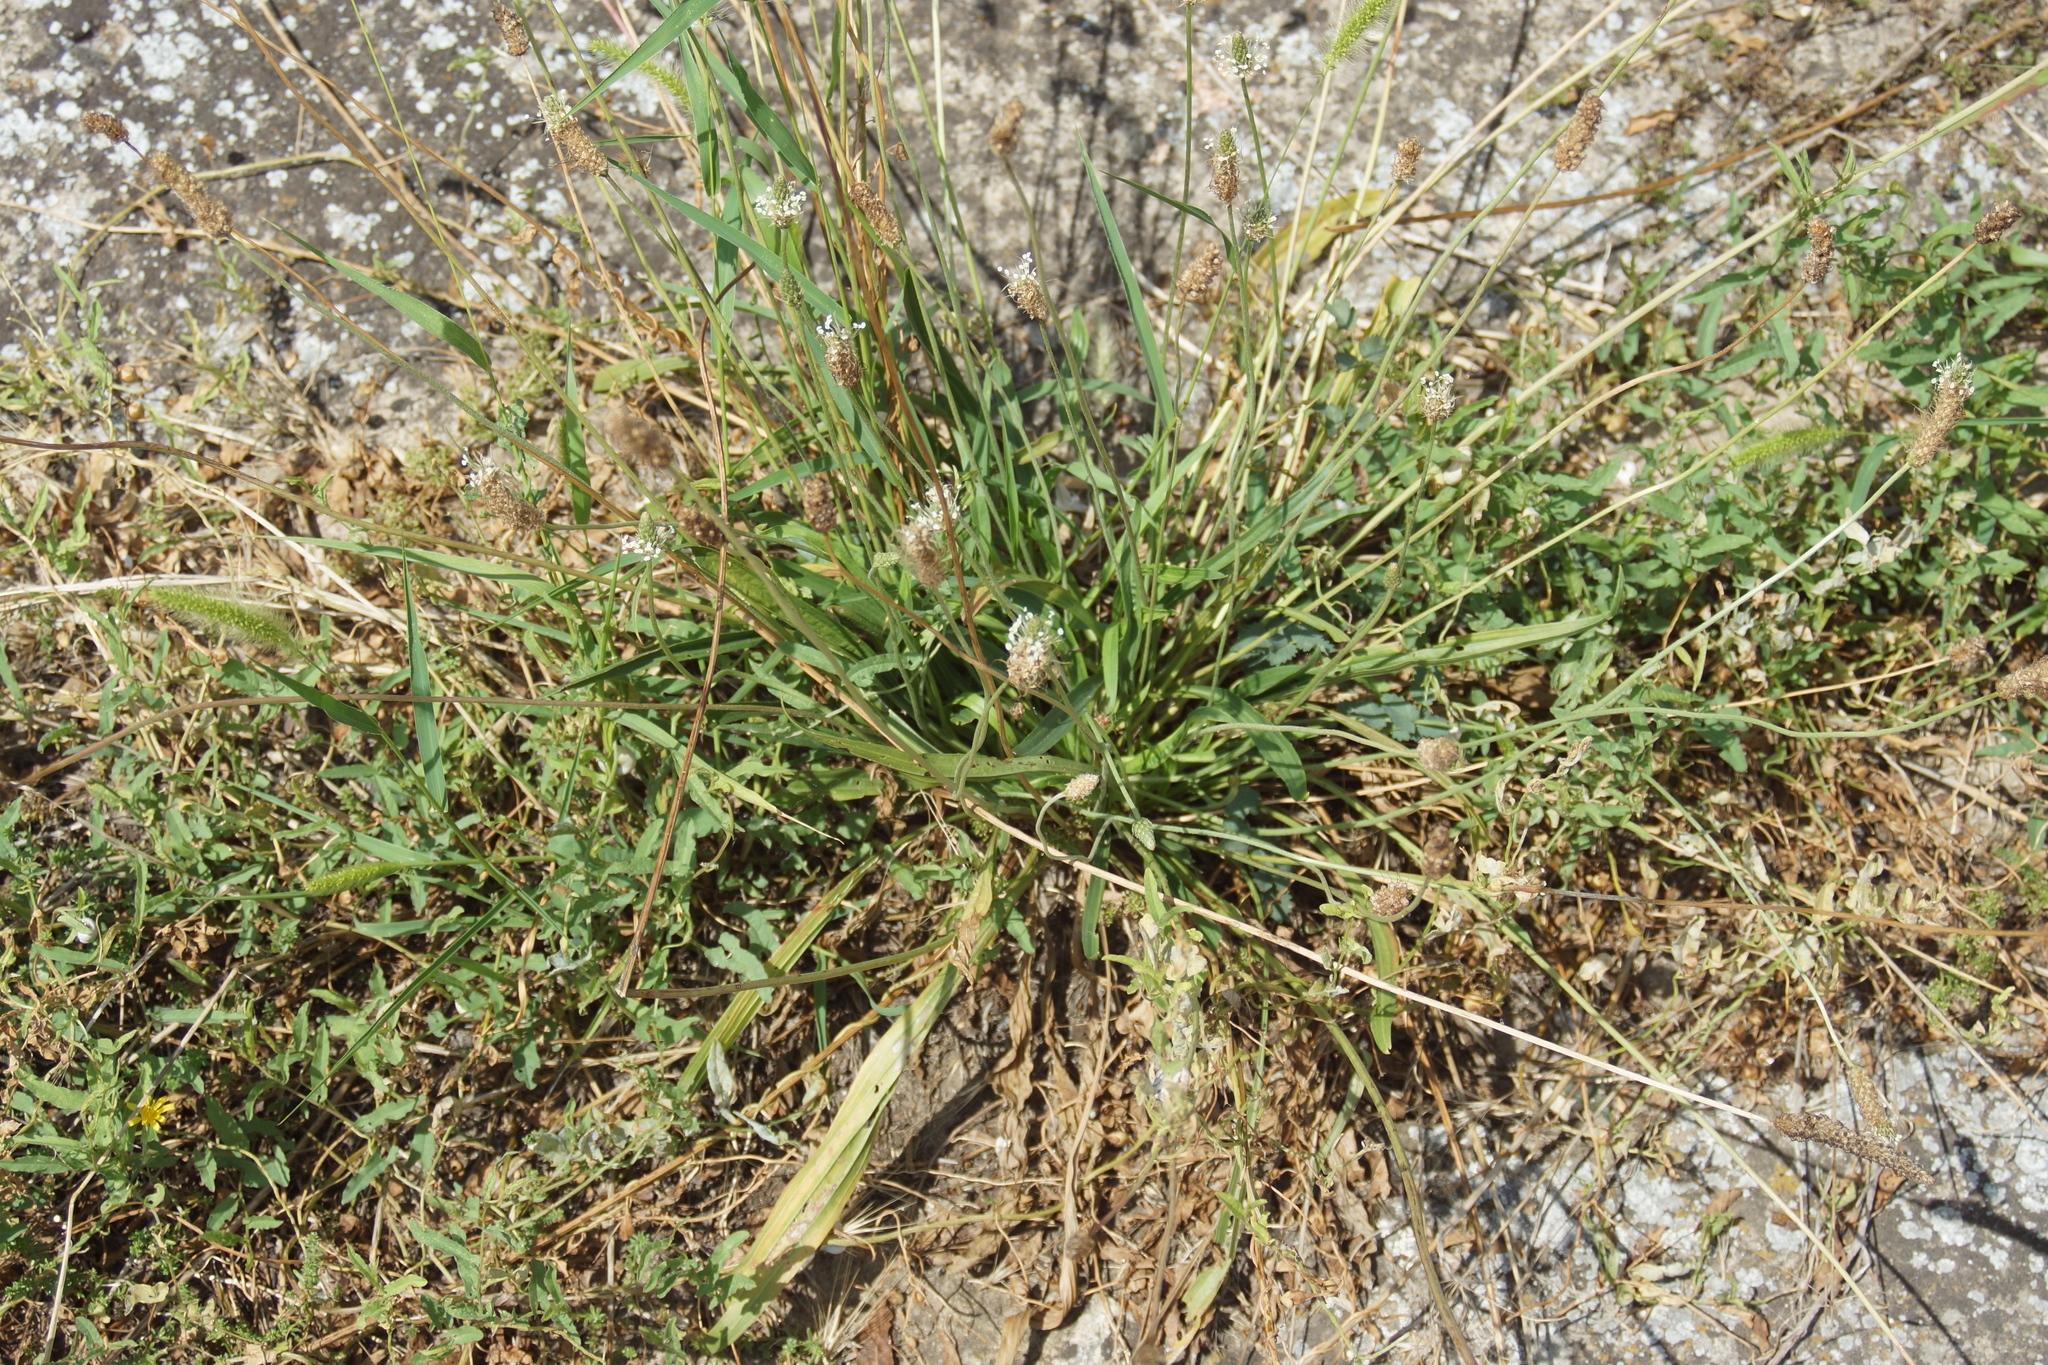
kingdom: Plantae
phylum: Tracheophyta
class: Magnoliopsida
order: Lamiales
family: Plantaginaceae
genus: Plantago
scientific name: Plantago lanceolata
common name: Ribwort plantain
